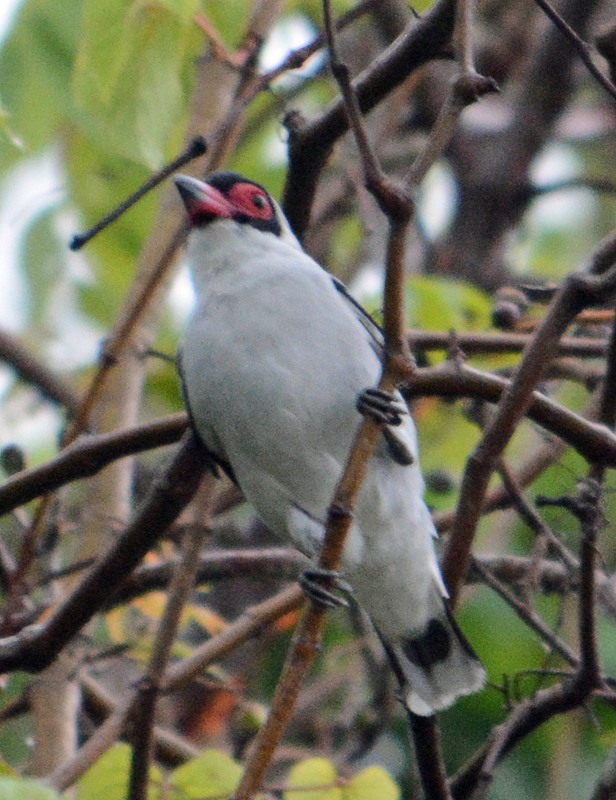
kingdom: Animalia
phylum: Chordata
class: Aves
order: Passeriformes
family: Cotingidae
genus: Tityra
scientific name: Tityra semifasciata
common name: Masked tityra
